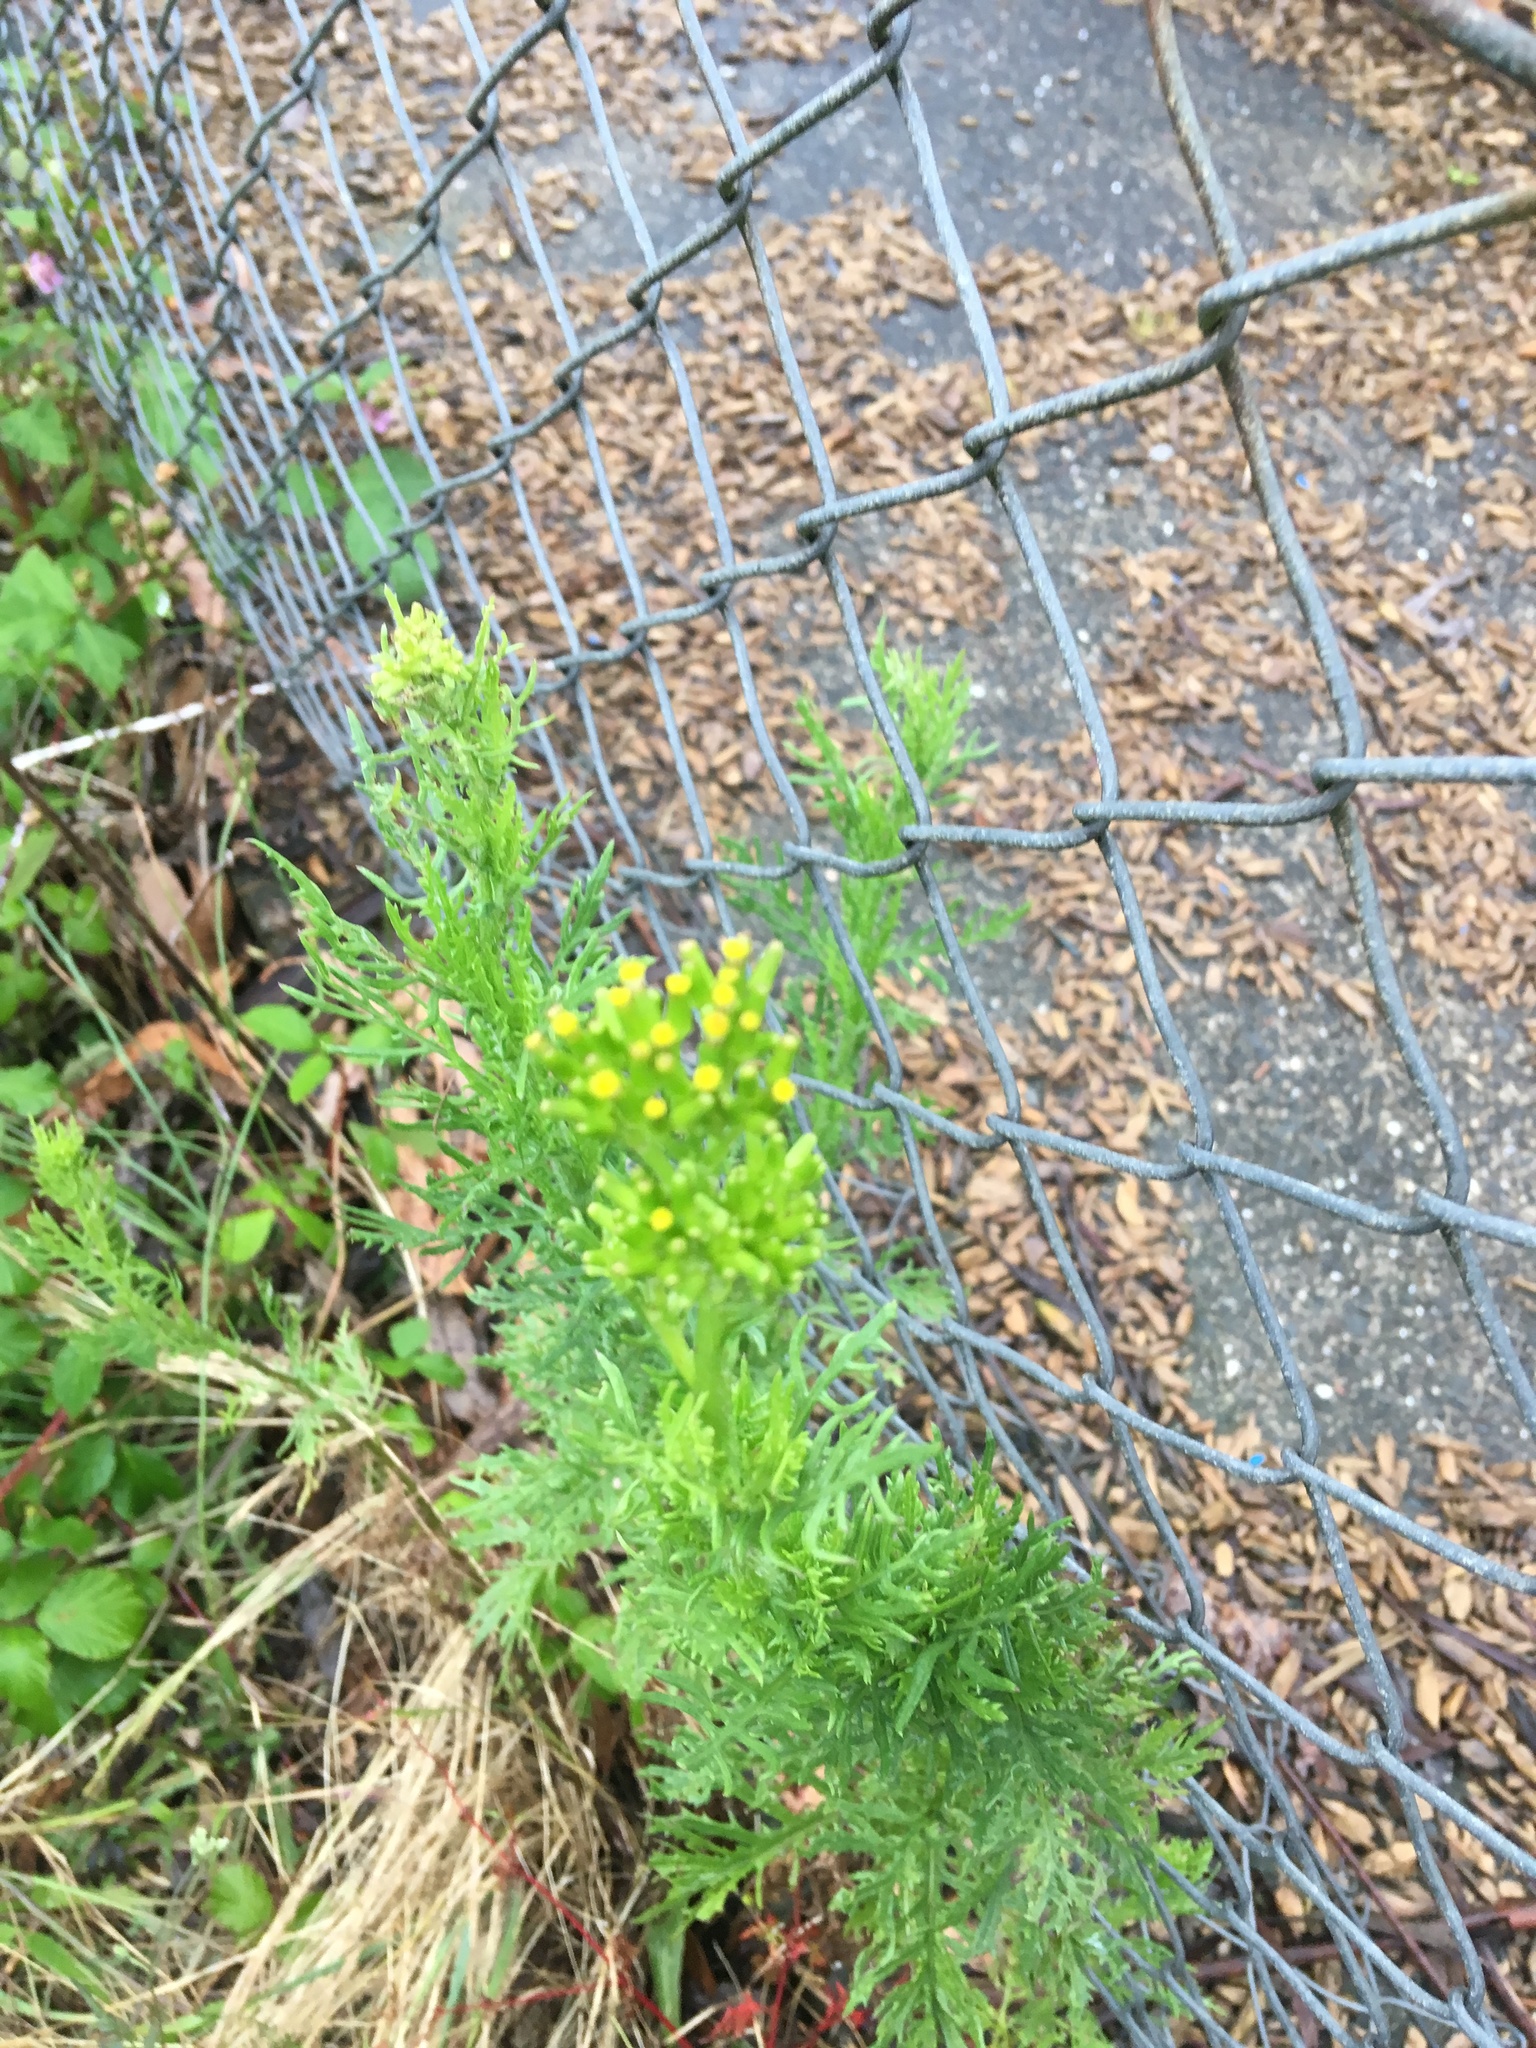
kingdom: Plantae
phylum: Tracheophyta
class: Magnoliopsida
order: Asterales
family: Asteraceae
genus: Senecio
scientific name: Senecio esleri
